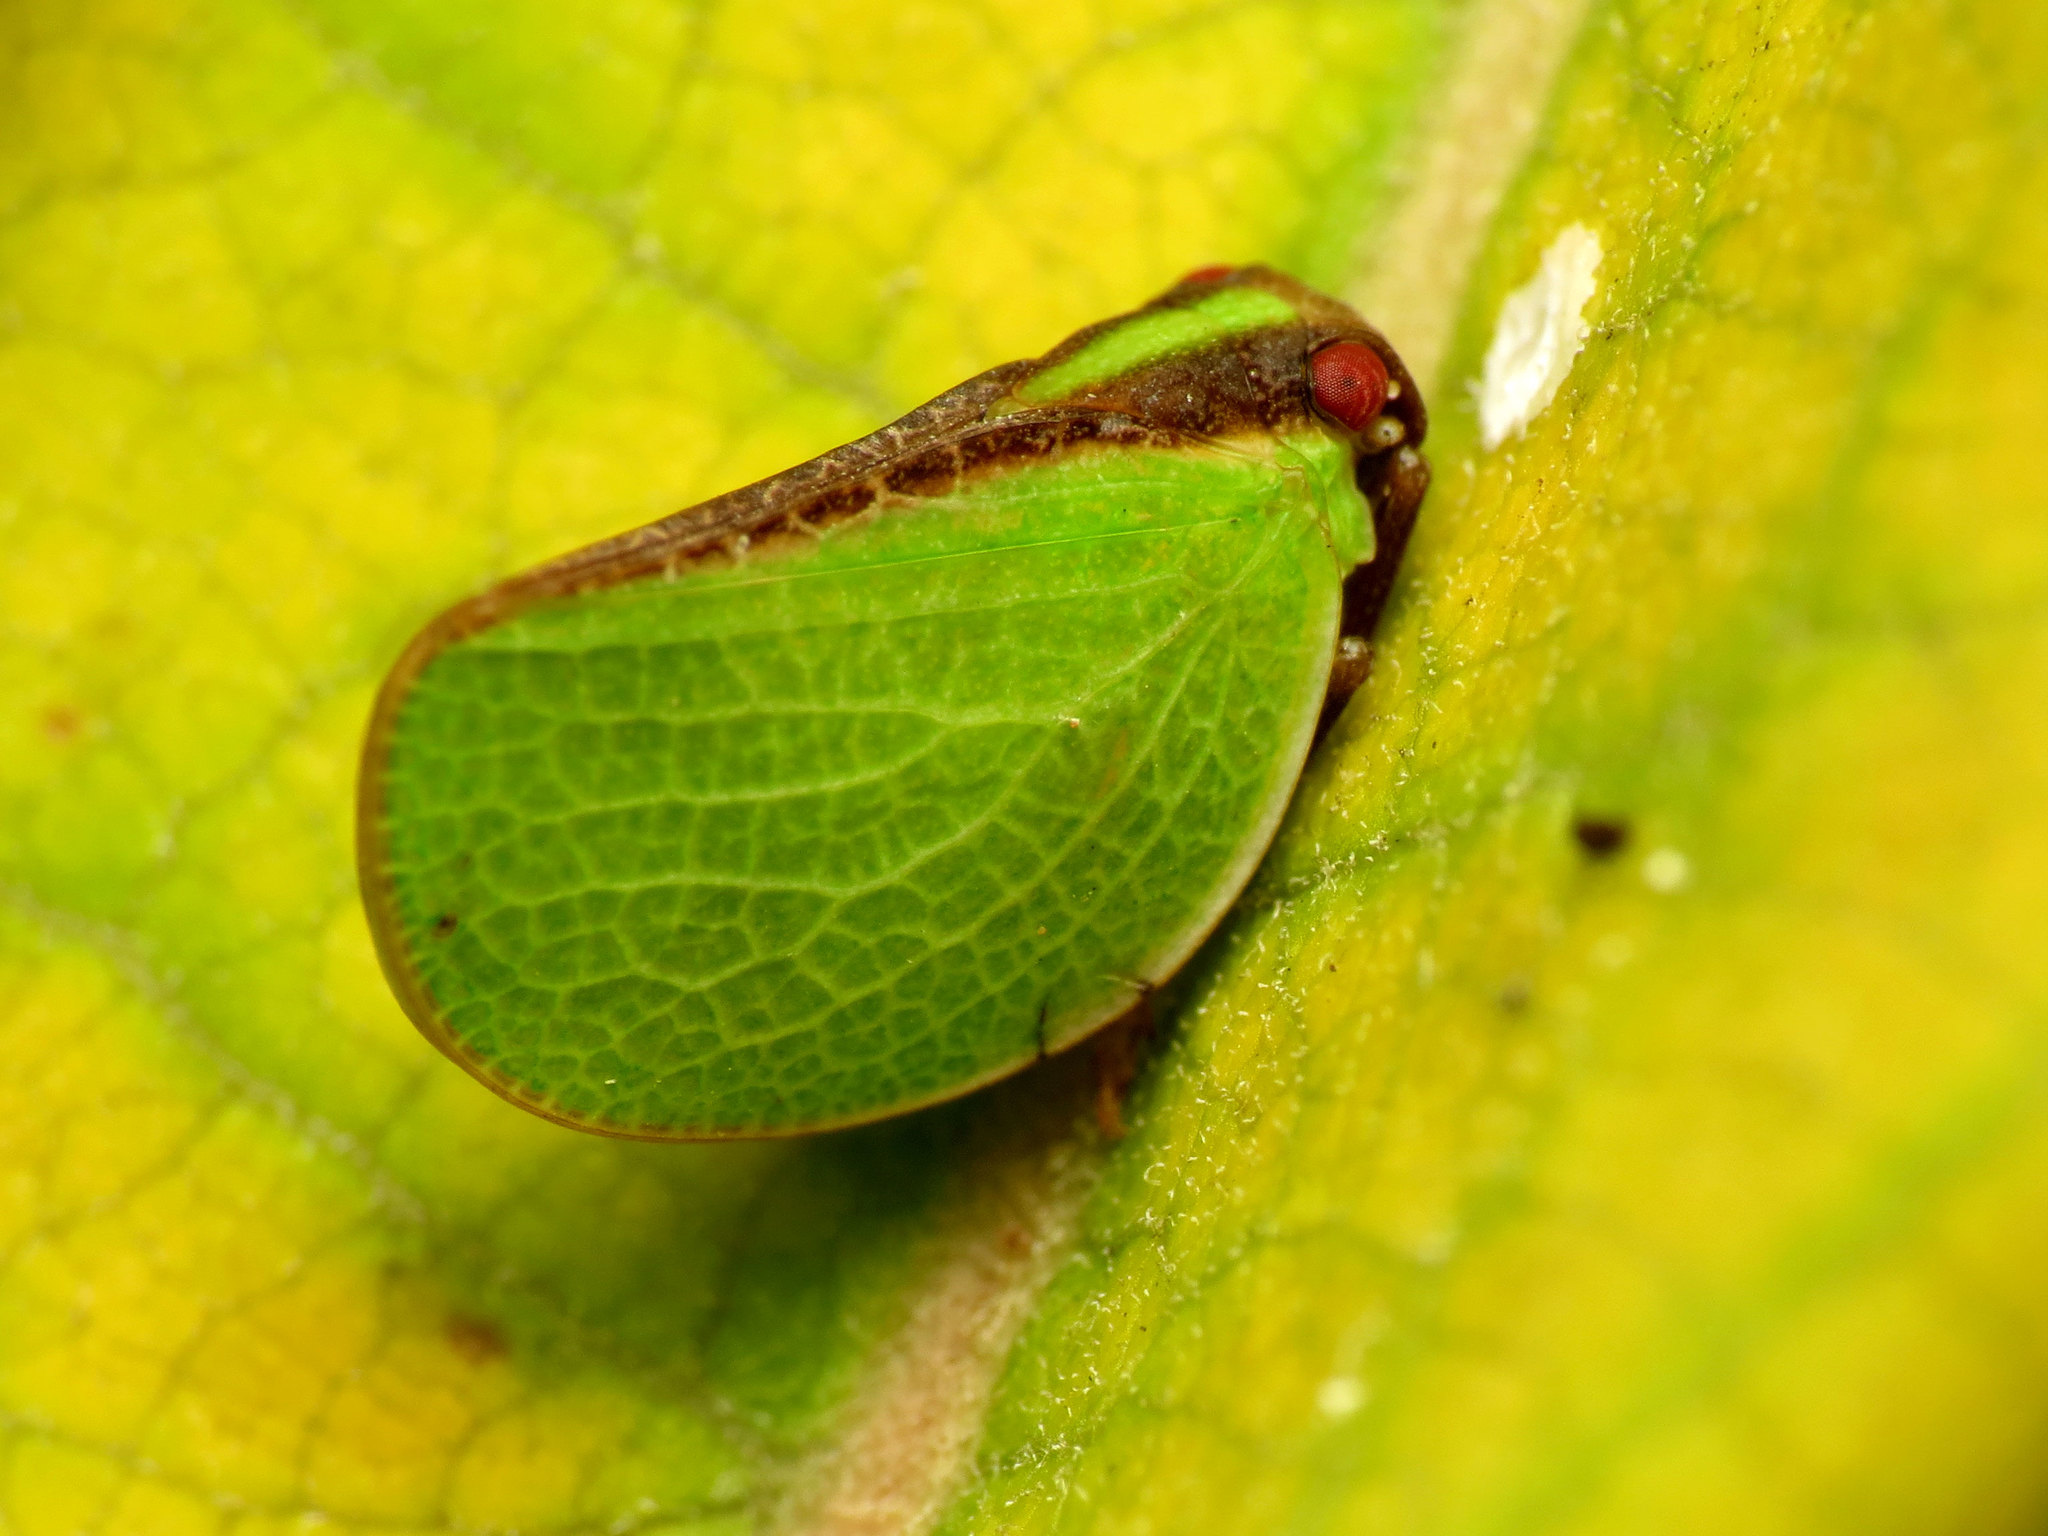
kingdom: Animalia
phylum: Arthropoda
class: Insecta
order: Hemiptera
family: Acanaloniidae
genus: Acanalonia
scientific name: Acanalonia bivittata
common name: Two-striped planthopper
